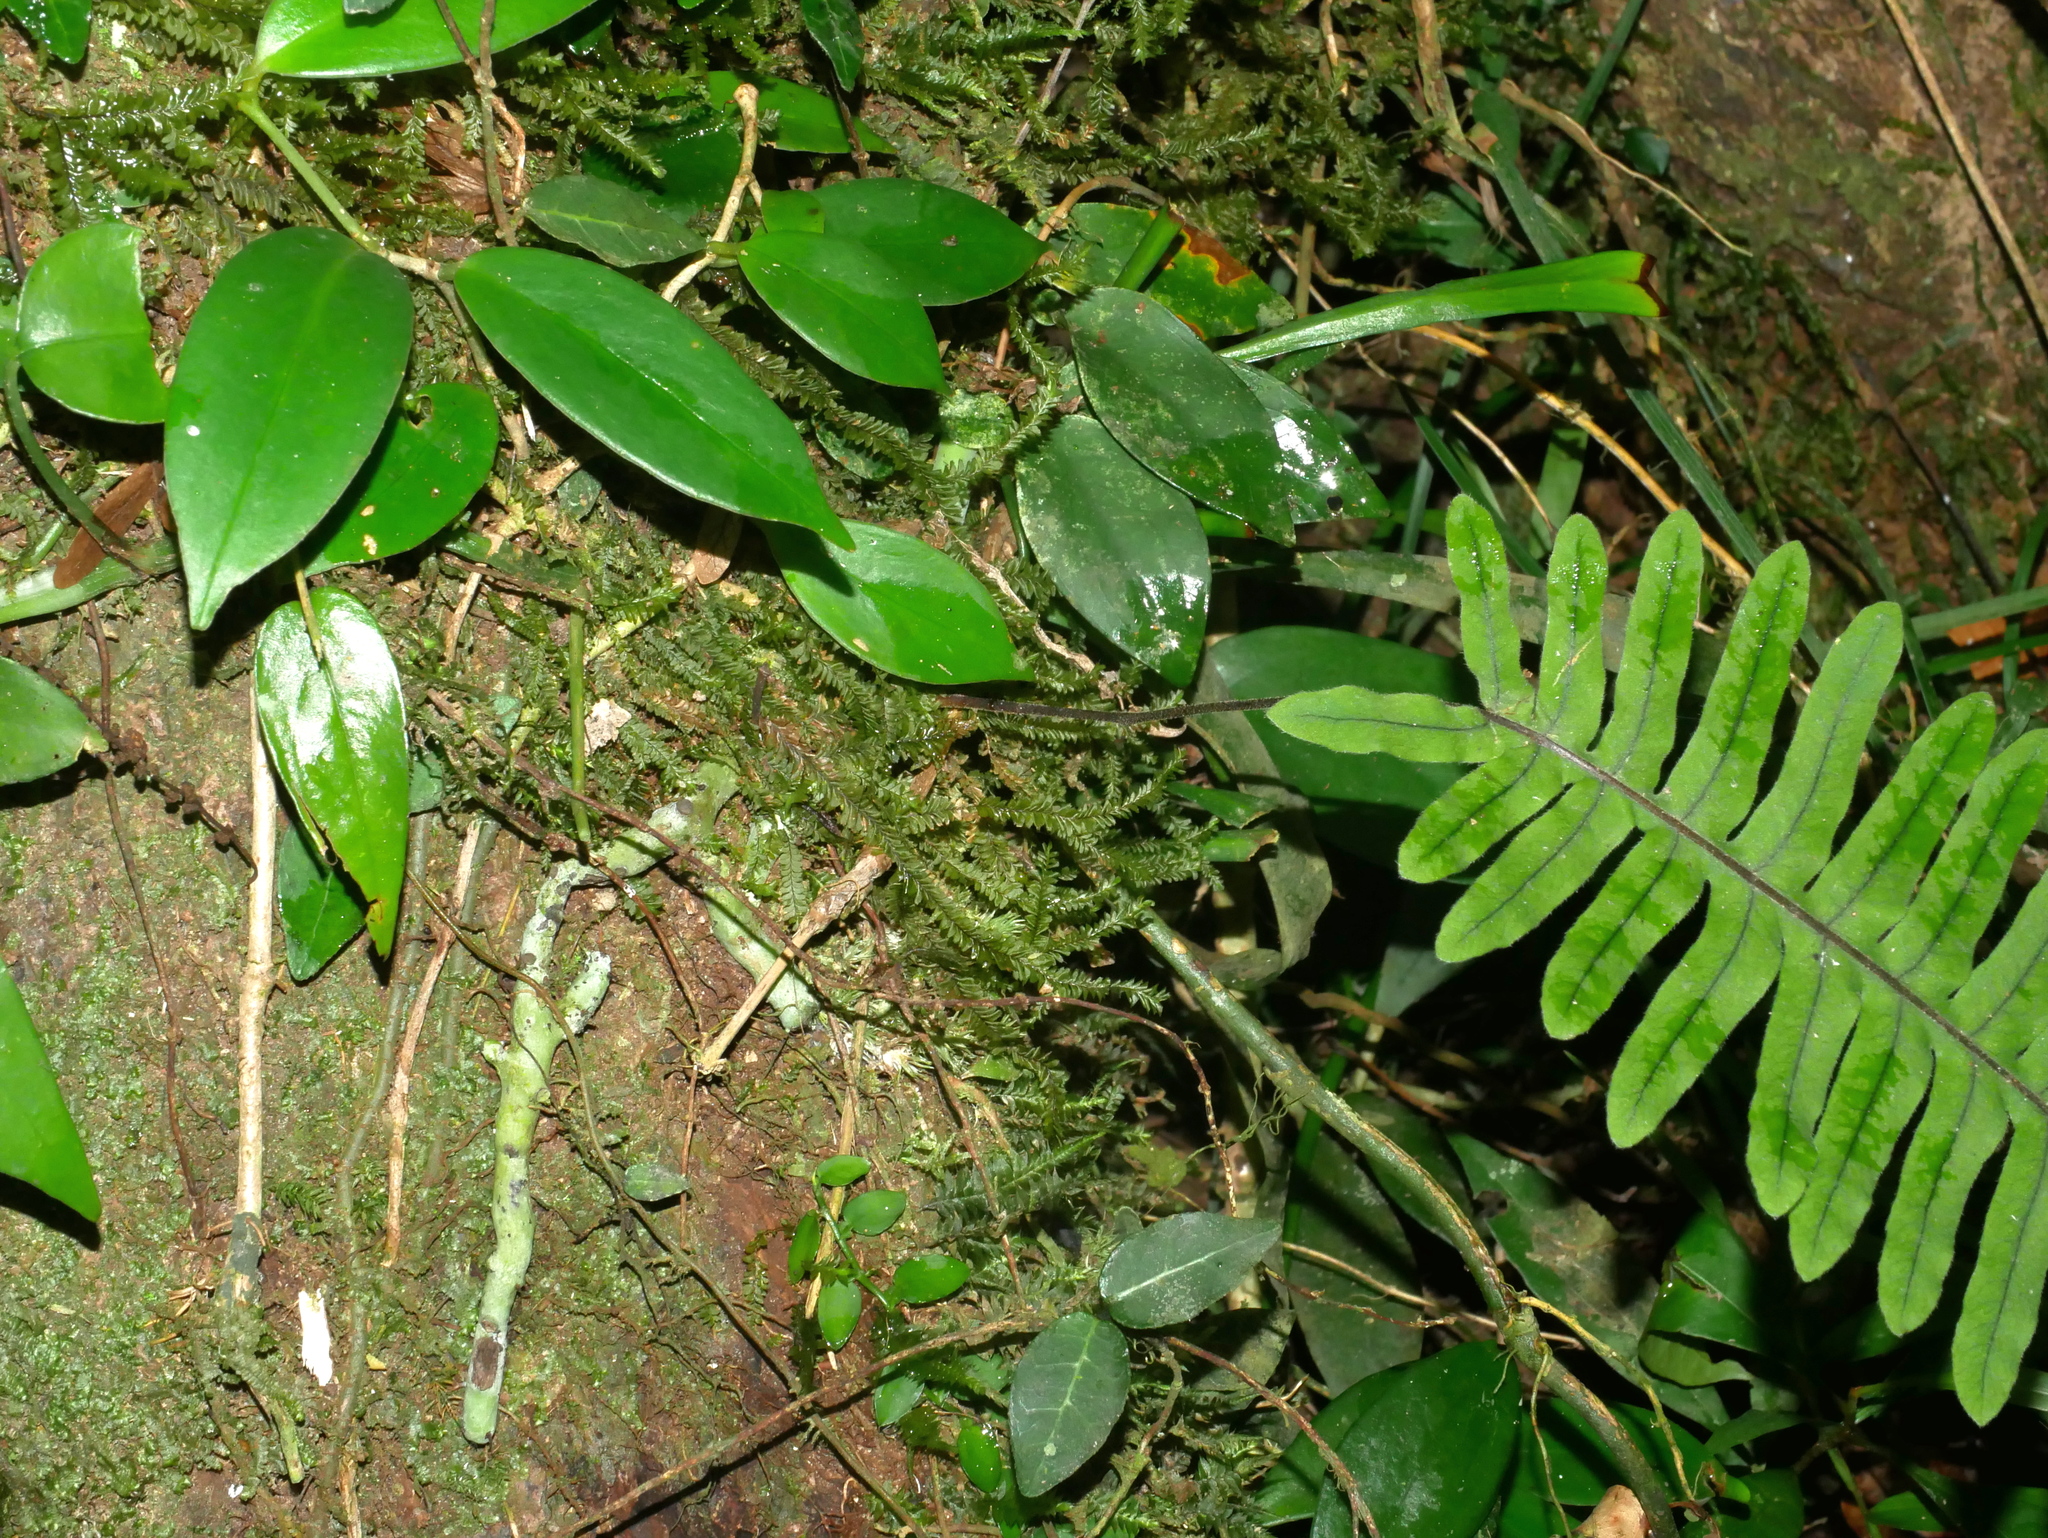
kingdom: Plantae
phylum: Tracheophyta
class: Polypodiopsida
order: Polypodiales
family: Polypodiaceae
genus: Goniophlebium
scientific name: Goniophlebium formosanum
